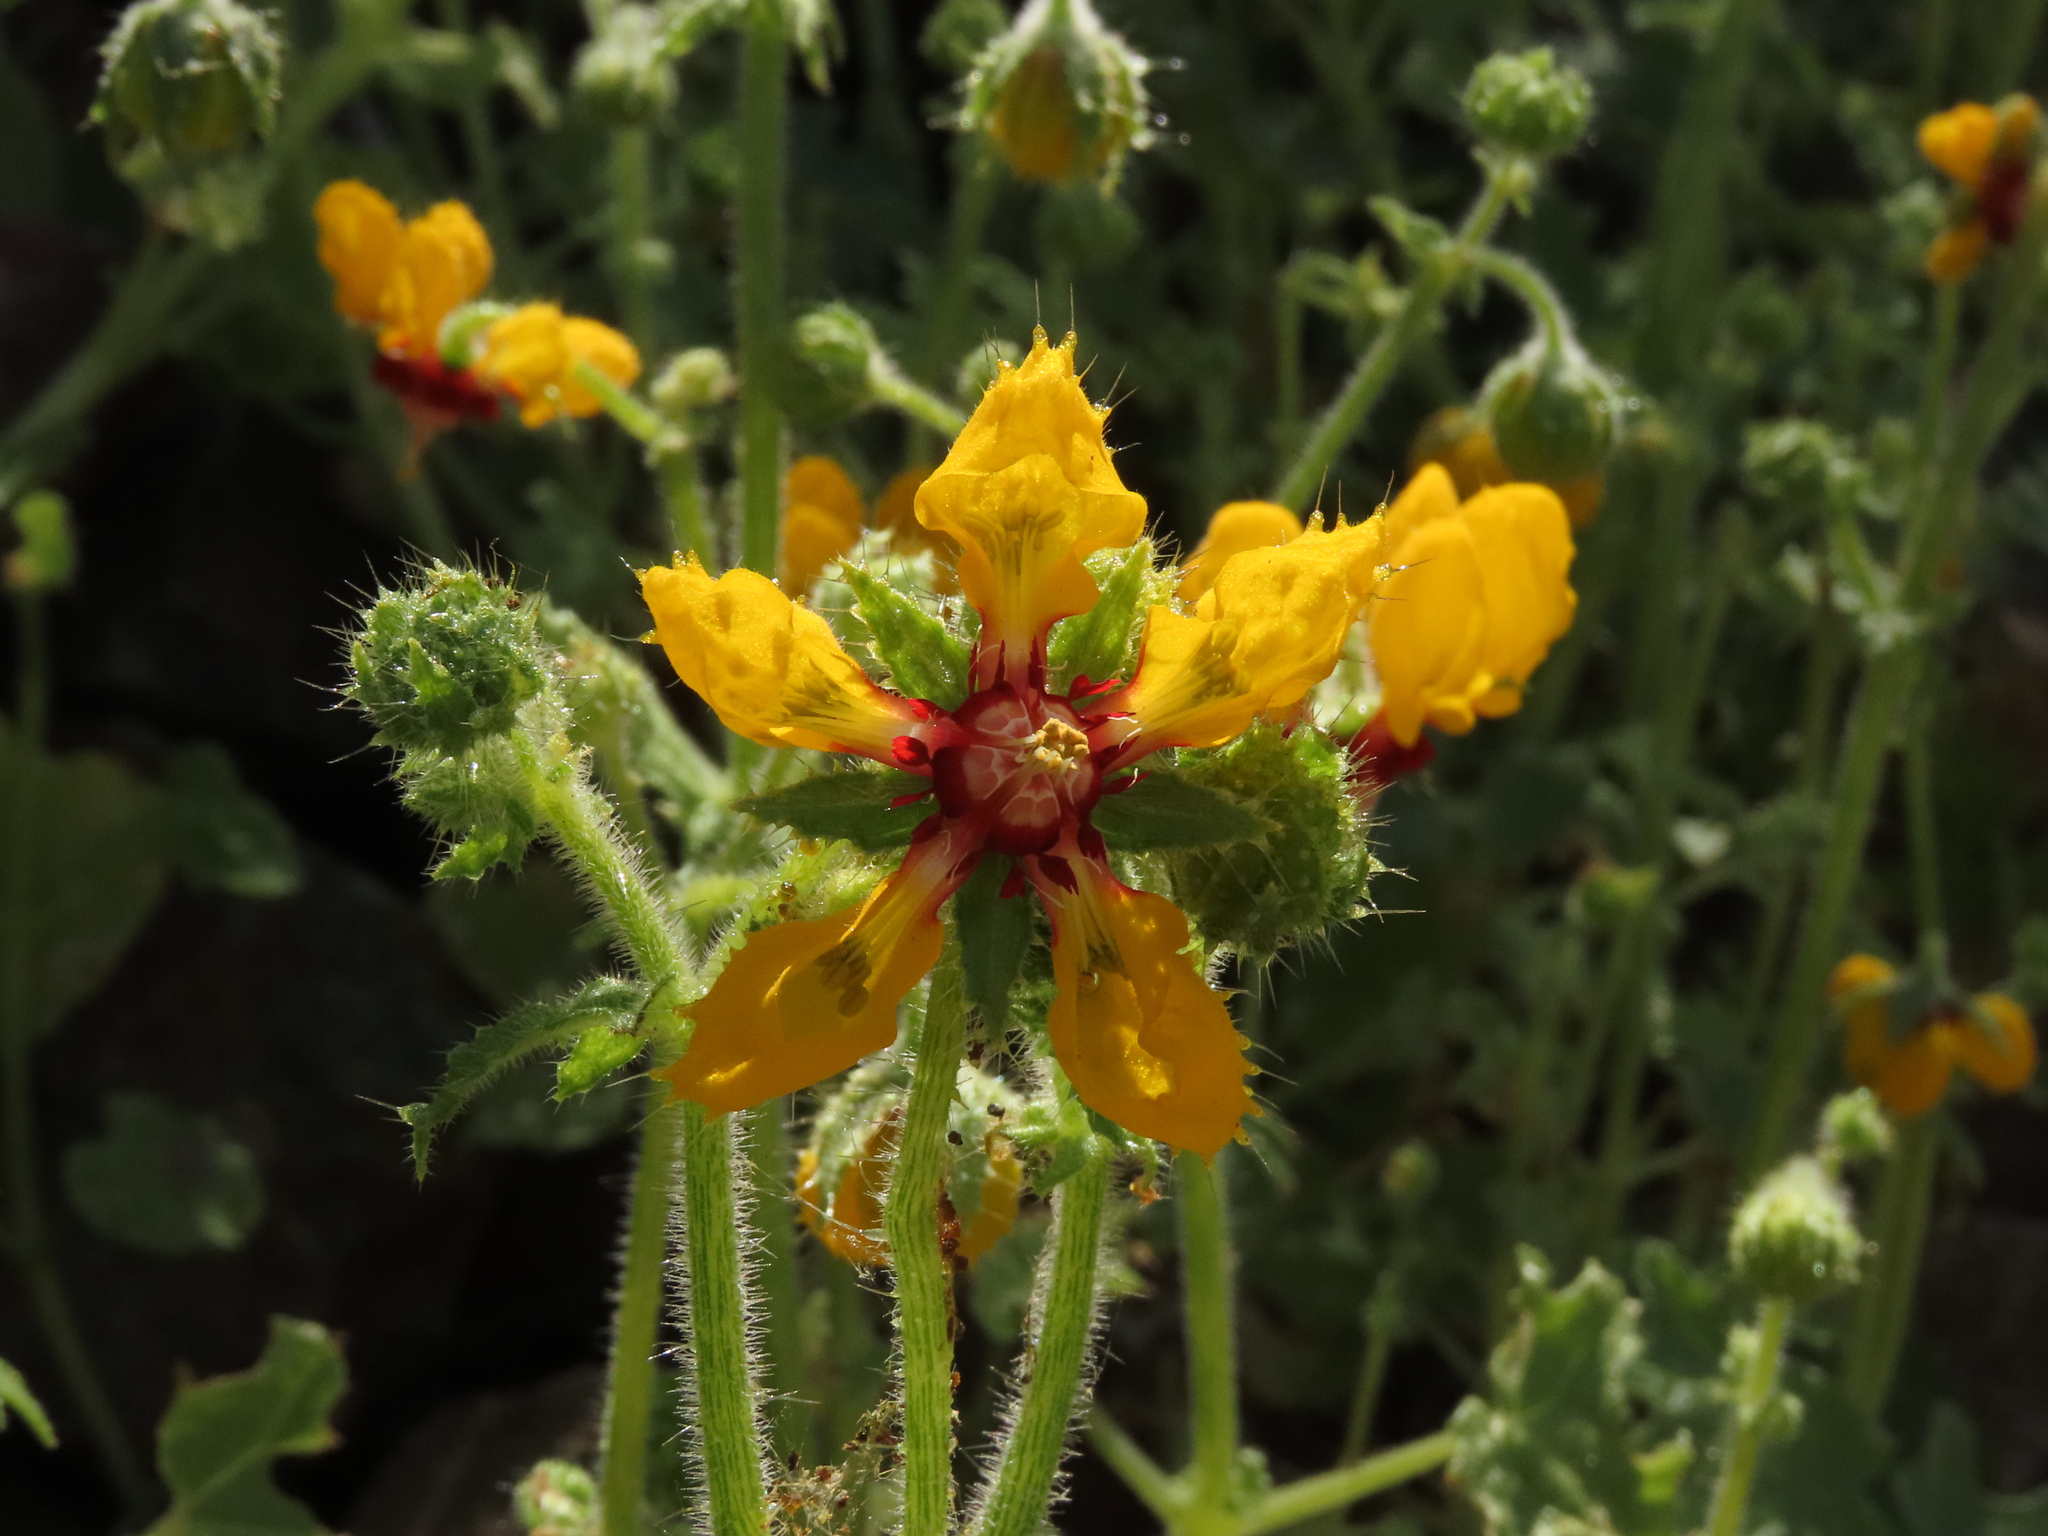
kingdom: Plantae
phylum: Tracheophyta
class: Magnoliopsida
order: Cornales
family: Loasaceae
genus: Loasa
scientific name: Loasa tricolor
